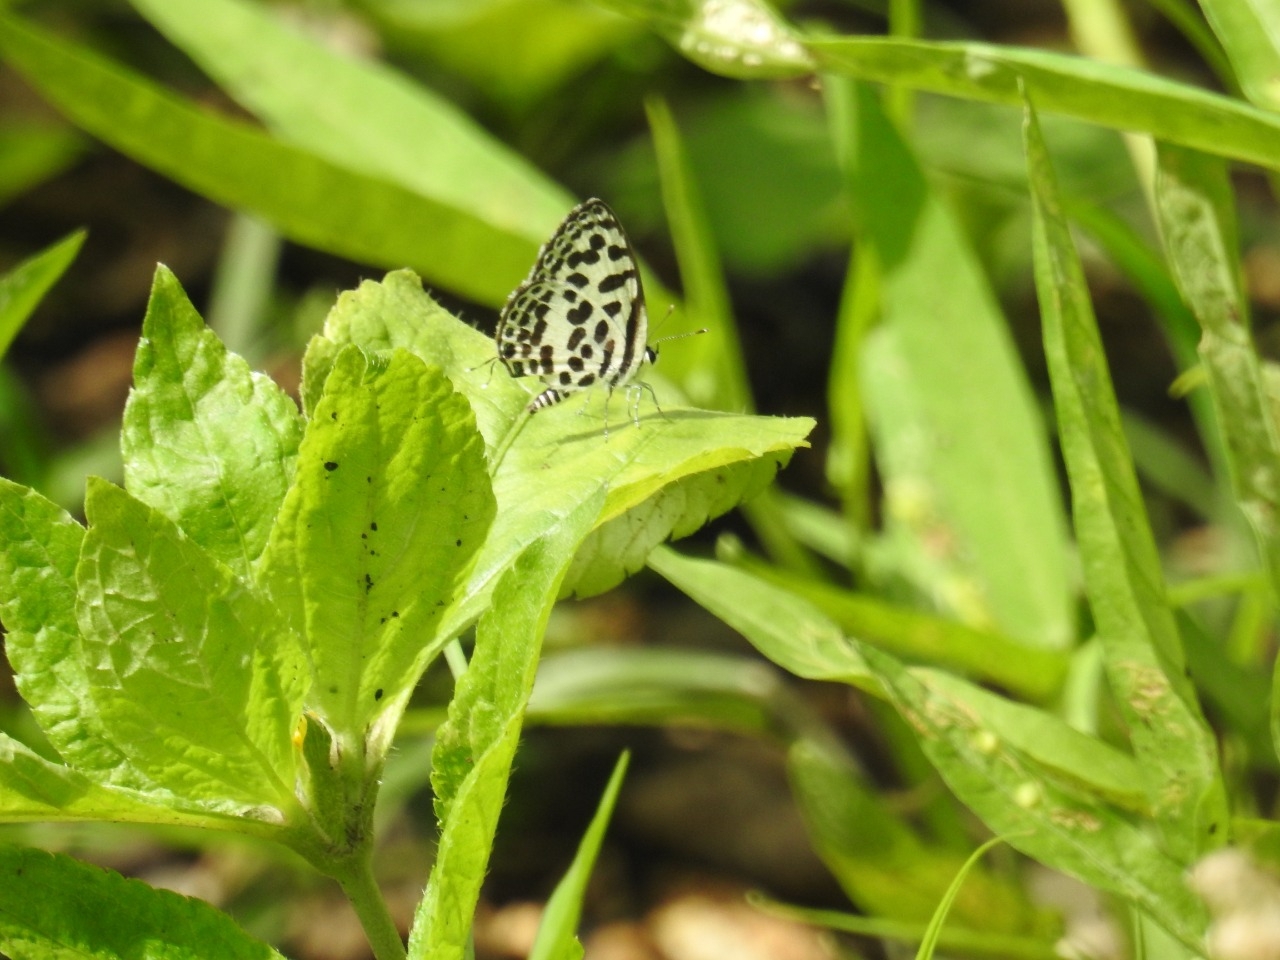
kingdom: Animalia
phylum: Arthropoda
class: Insecta
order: Lepidoptera
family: Lycaenidae
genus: Castalius
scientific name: Castalius rosimon
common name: Common pierrot
